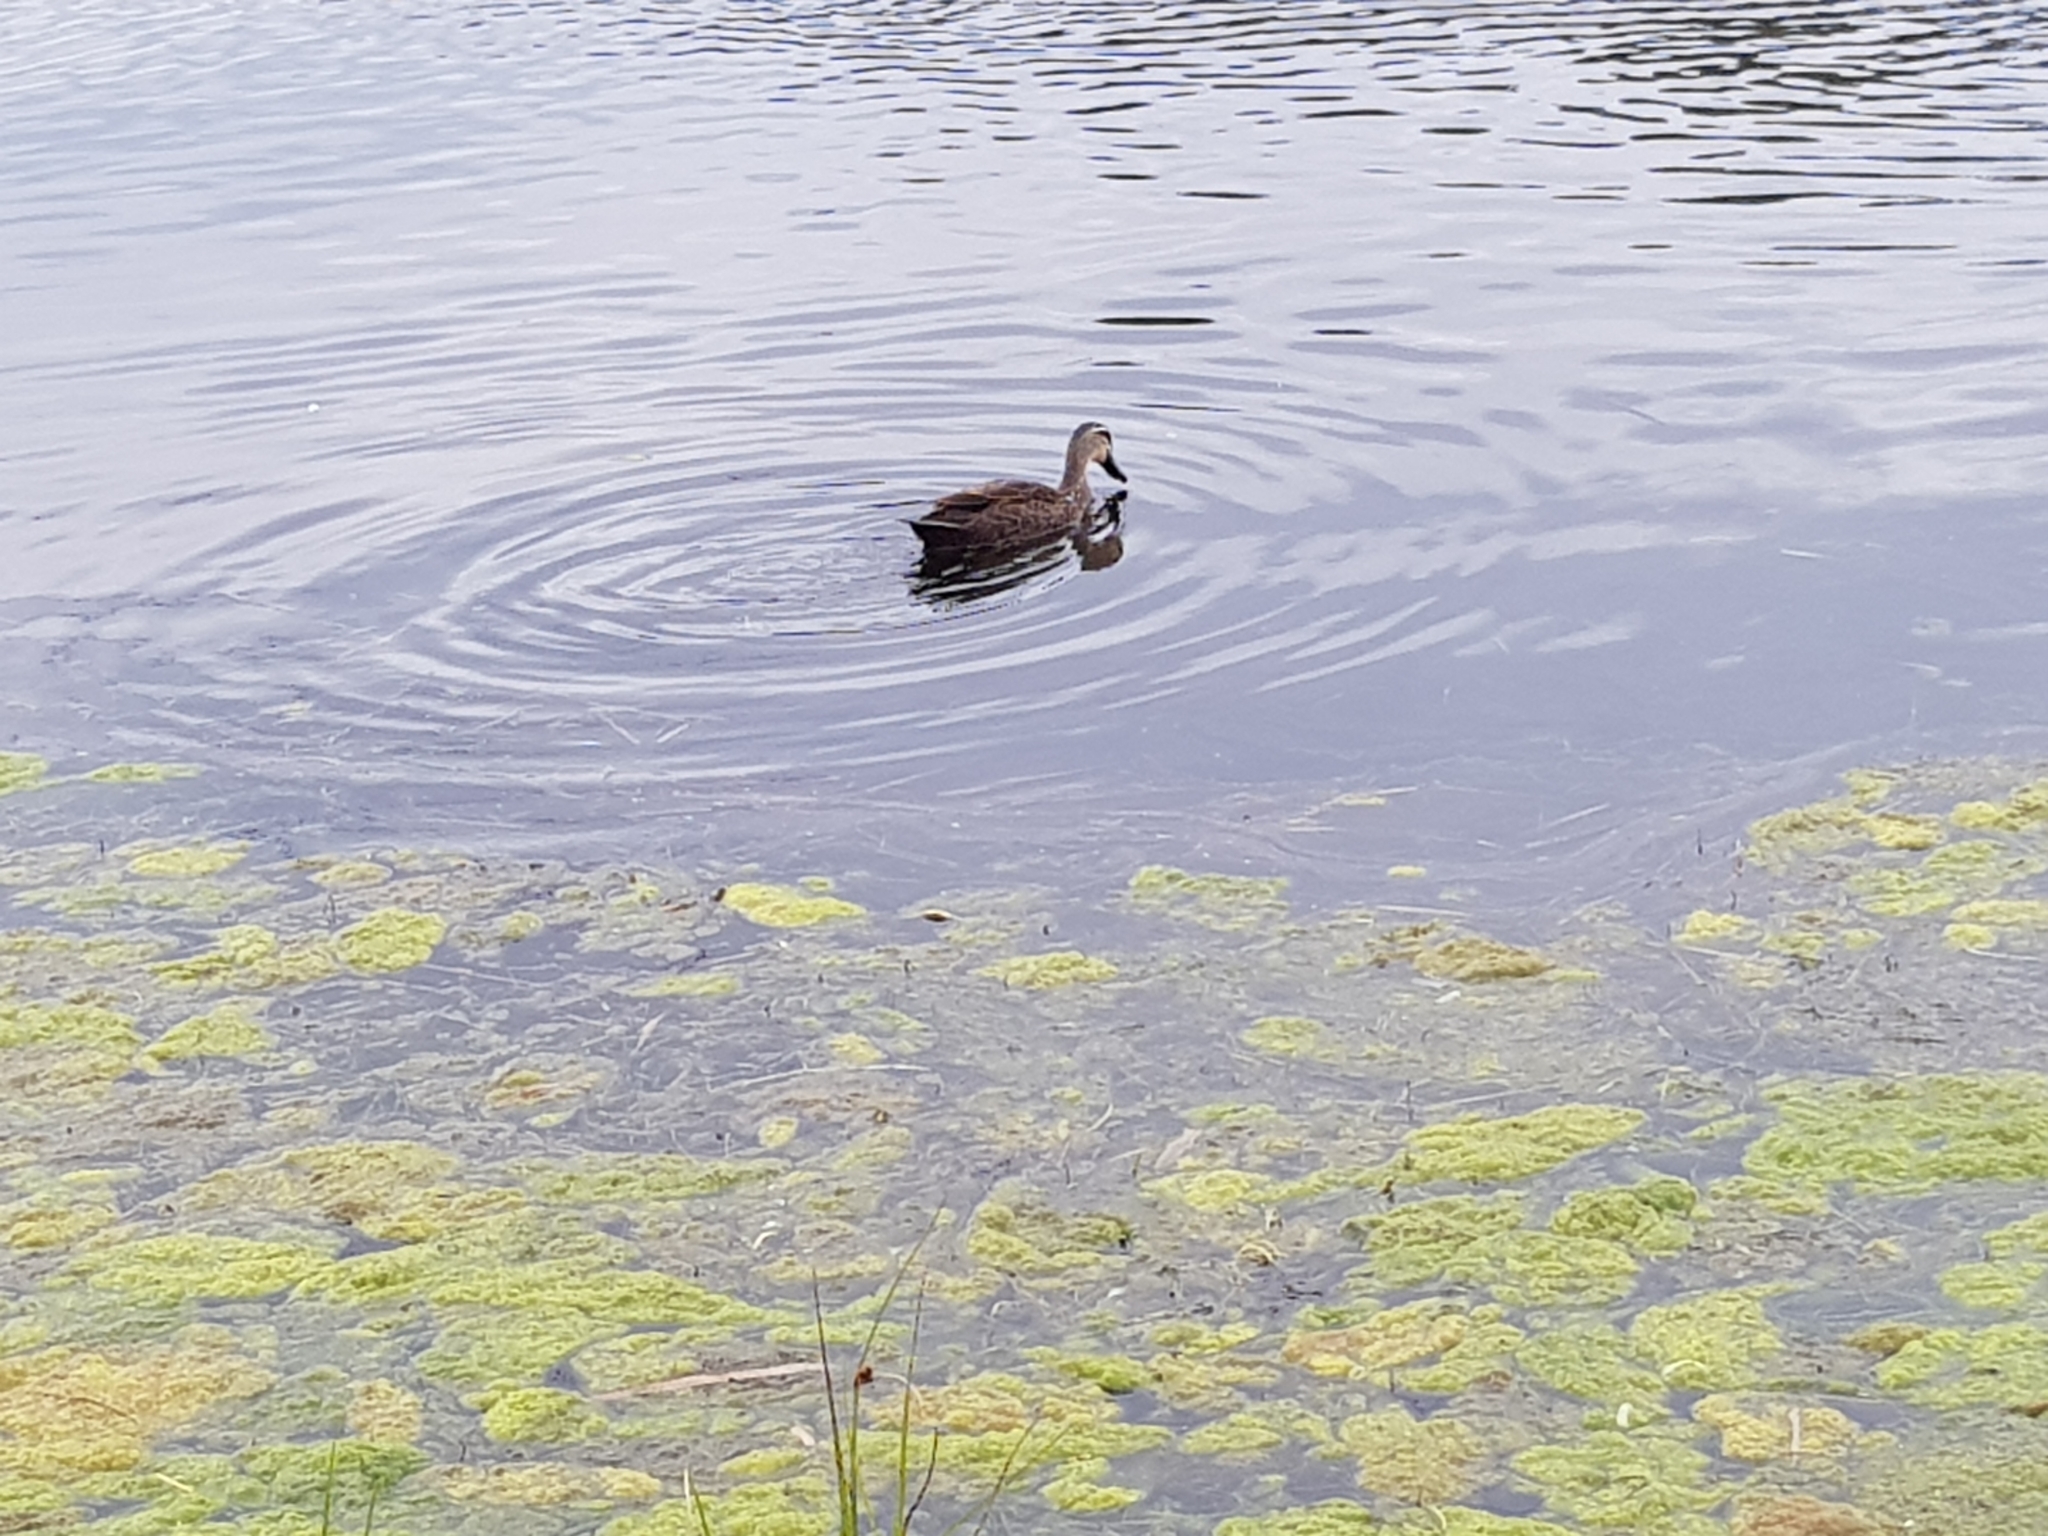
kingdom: Animalia
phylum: Chordata
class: Aves
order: Anseriformes
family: Anatidae
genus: Anas
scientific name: Anas superciliosa
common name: Pacific black duck
